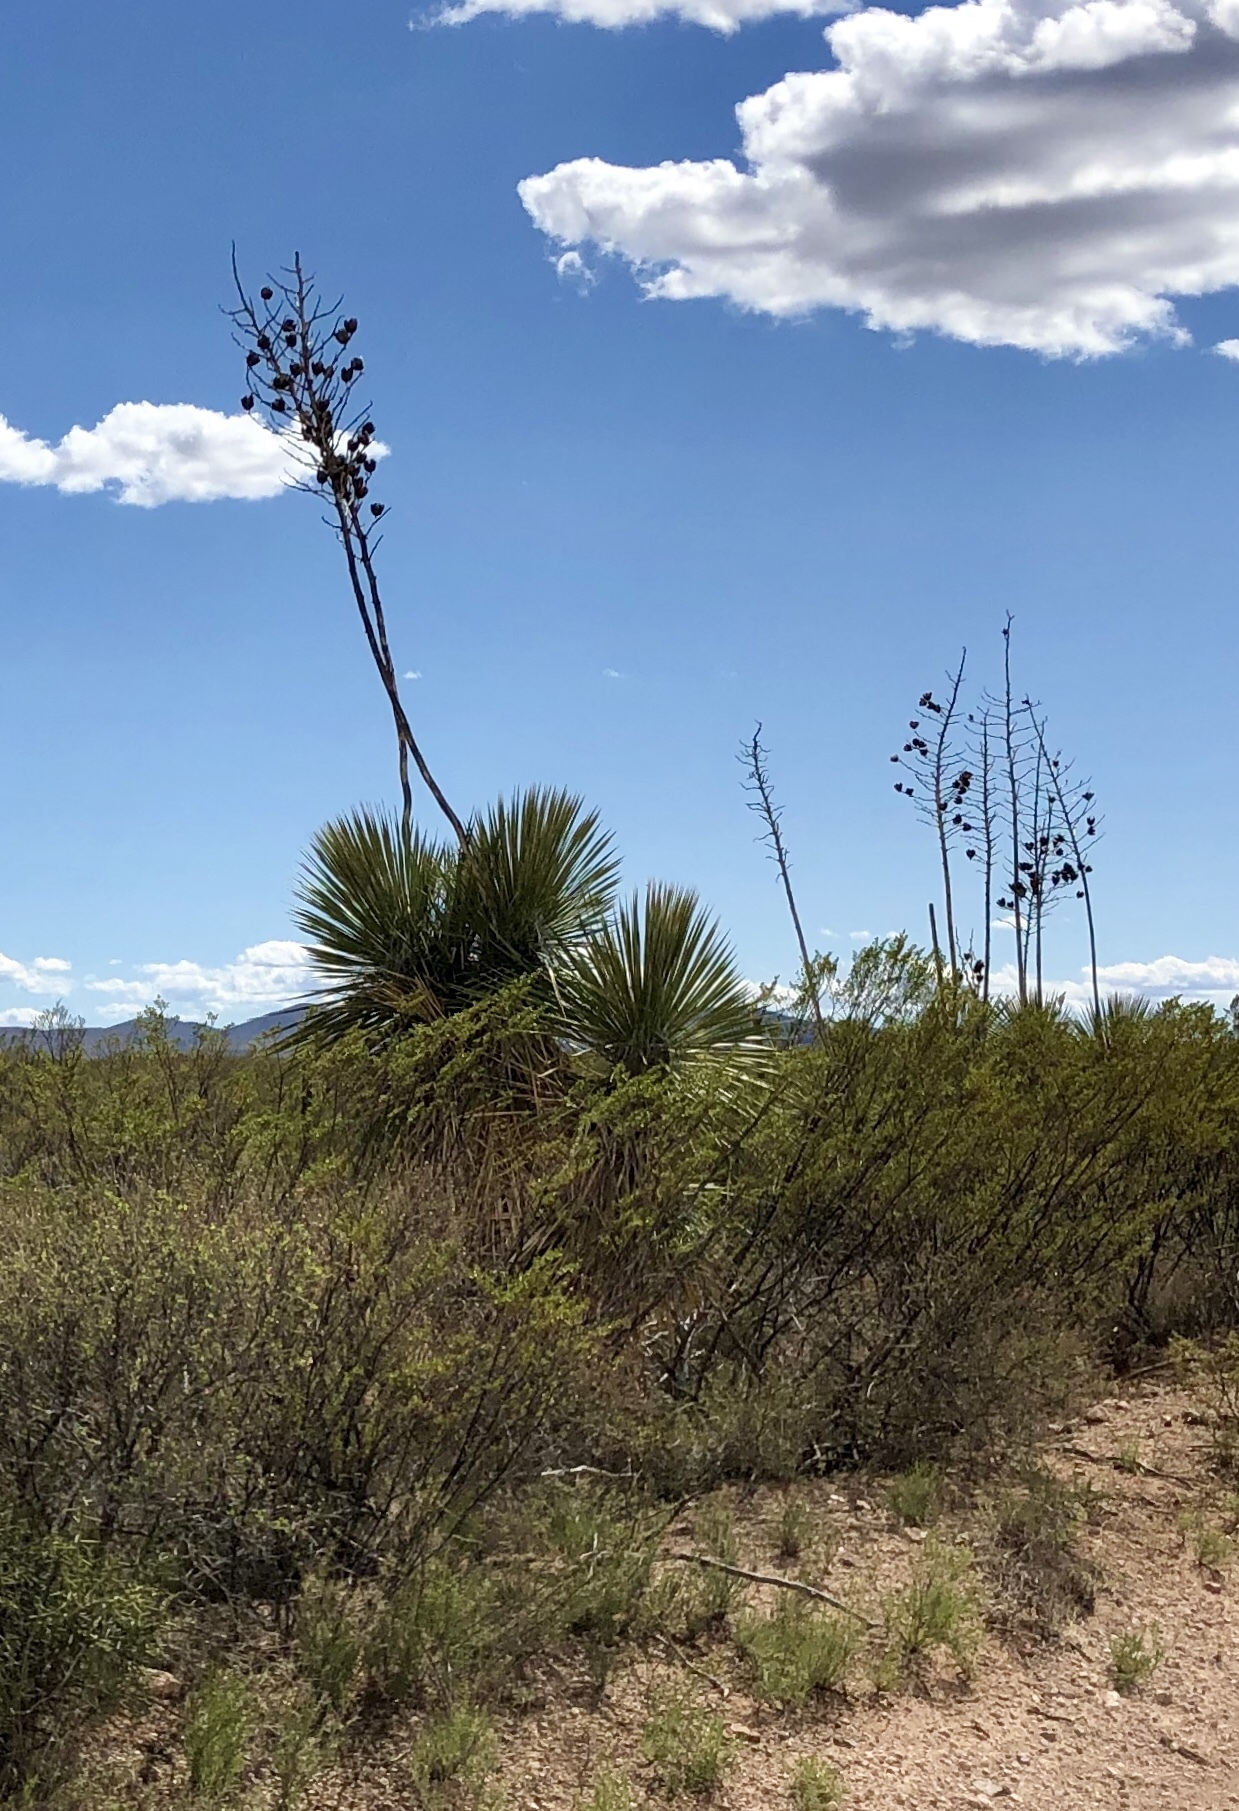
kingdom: Plantae
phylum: Tracheophyta
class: Liliopsida
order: Asparagales
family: Asparagaceae
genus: Yucca
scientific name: Yucca elata
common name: Palmella
